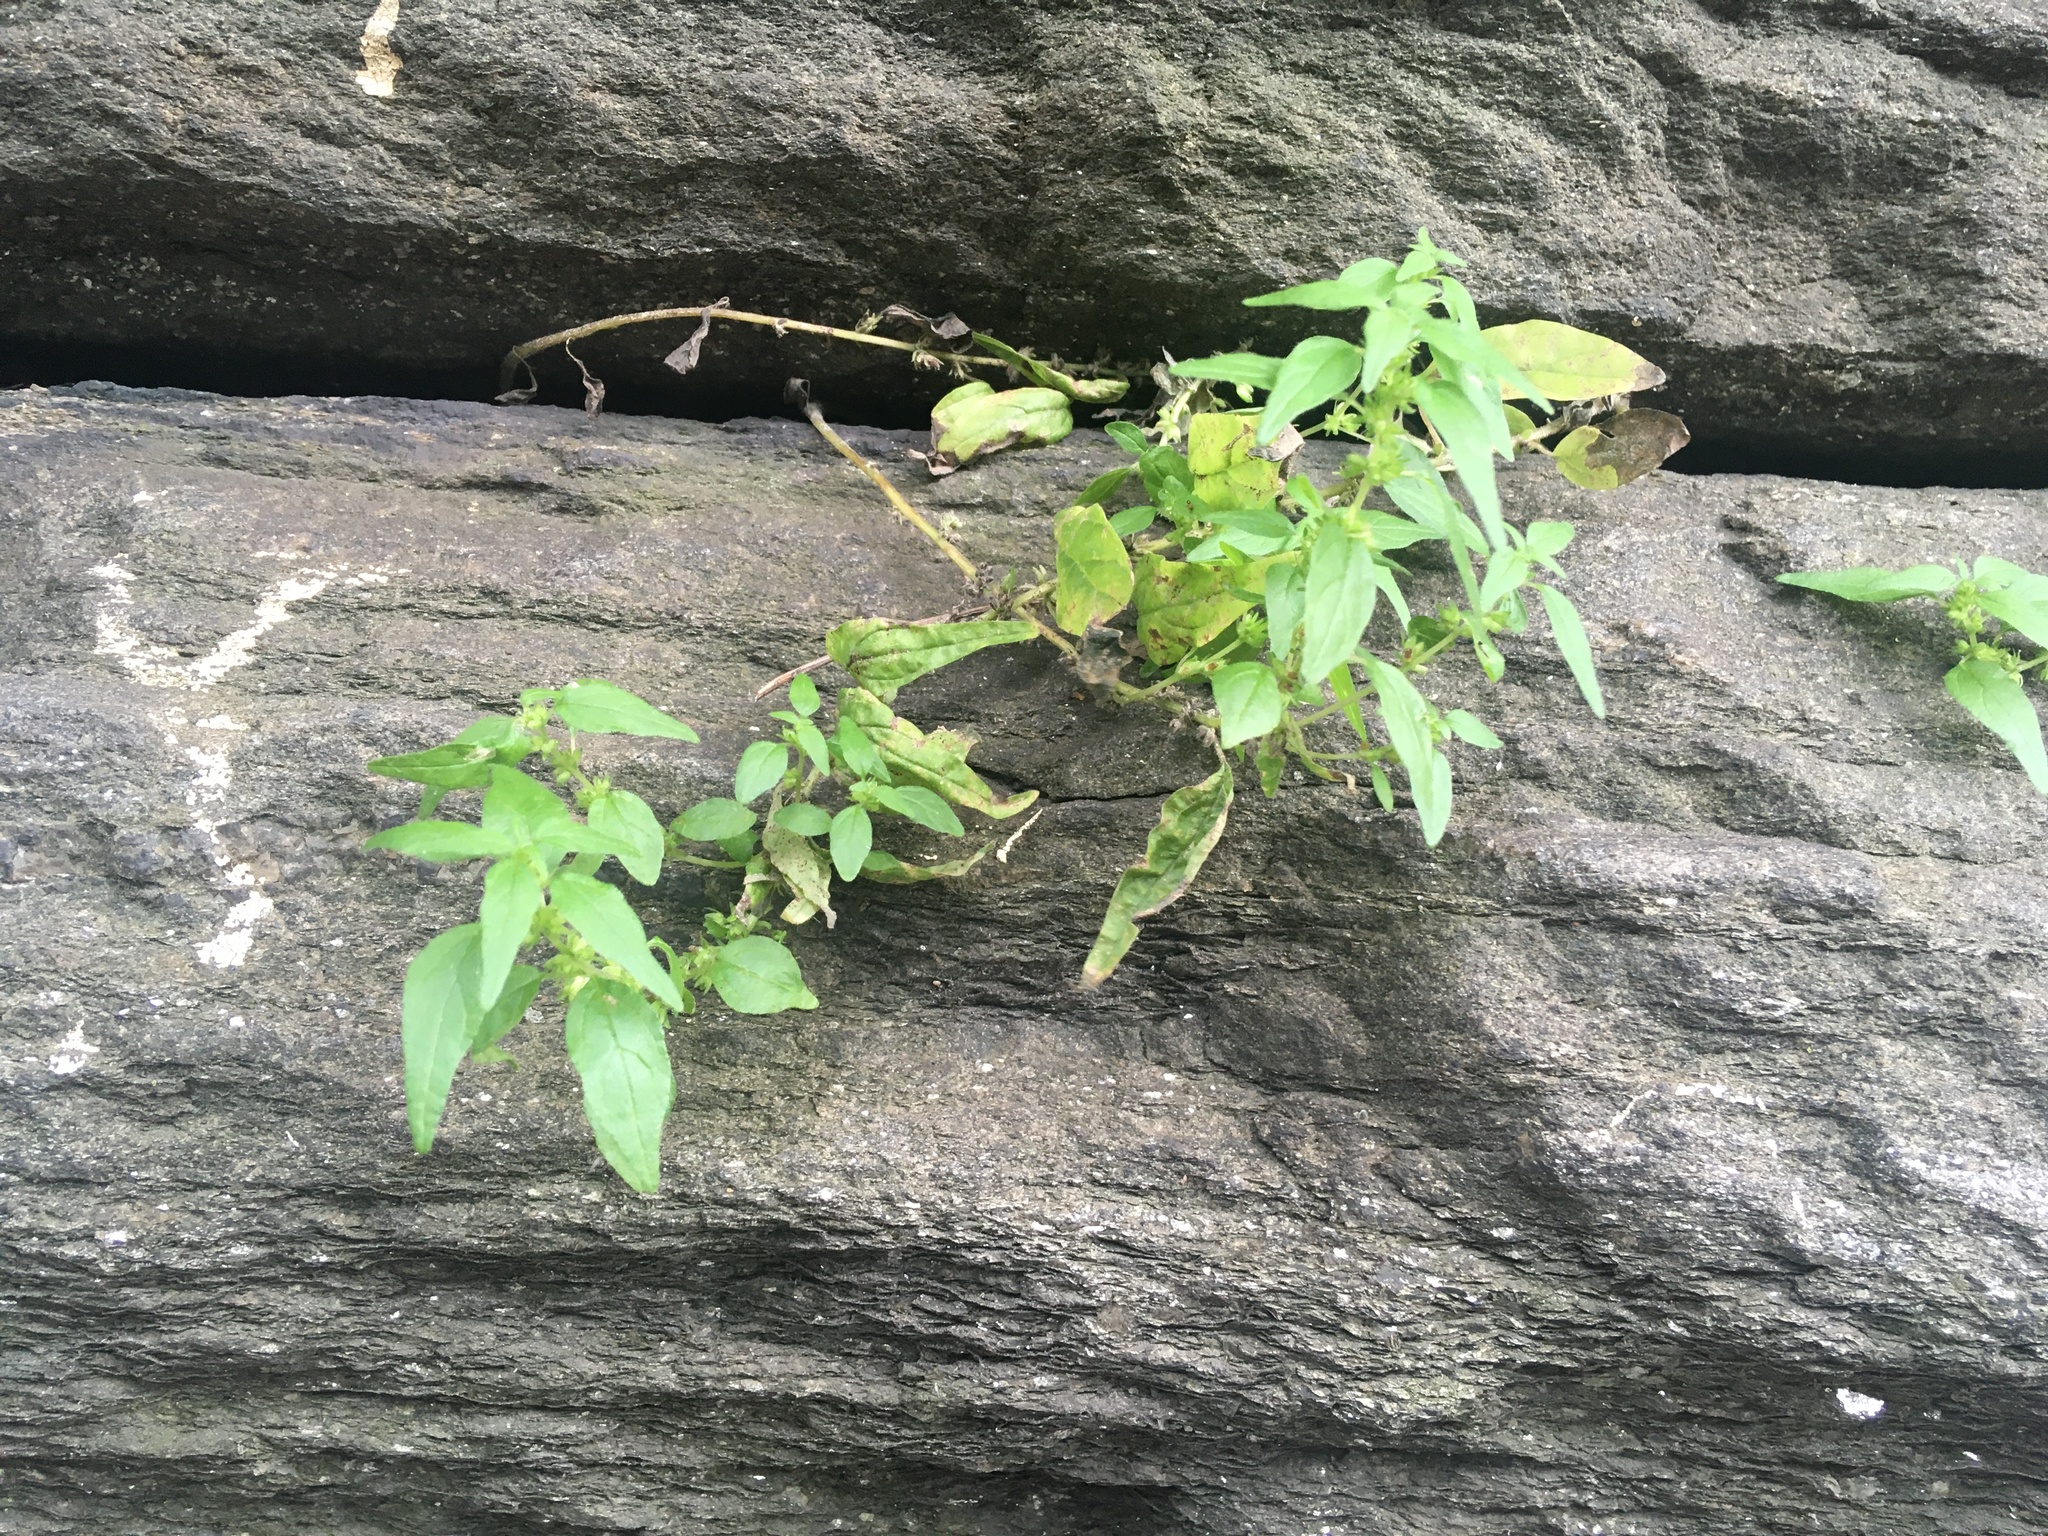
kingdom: Plantae
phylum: Tracheophyta
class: Magnoliopsida
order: Rosales
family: Urticaceae
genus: Parietaria
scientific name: Parietaria pensylvanica
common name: Pennsylvania pellitory
